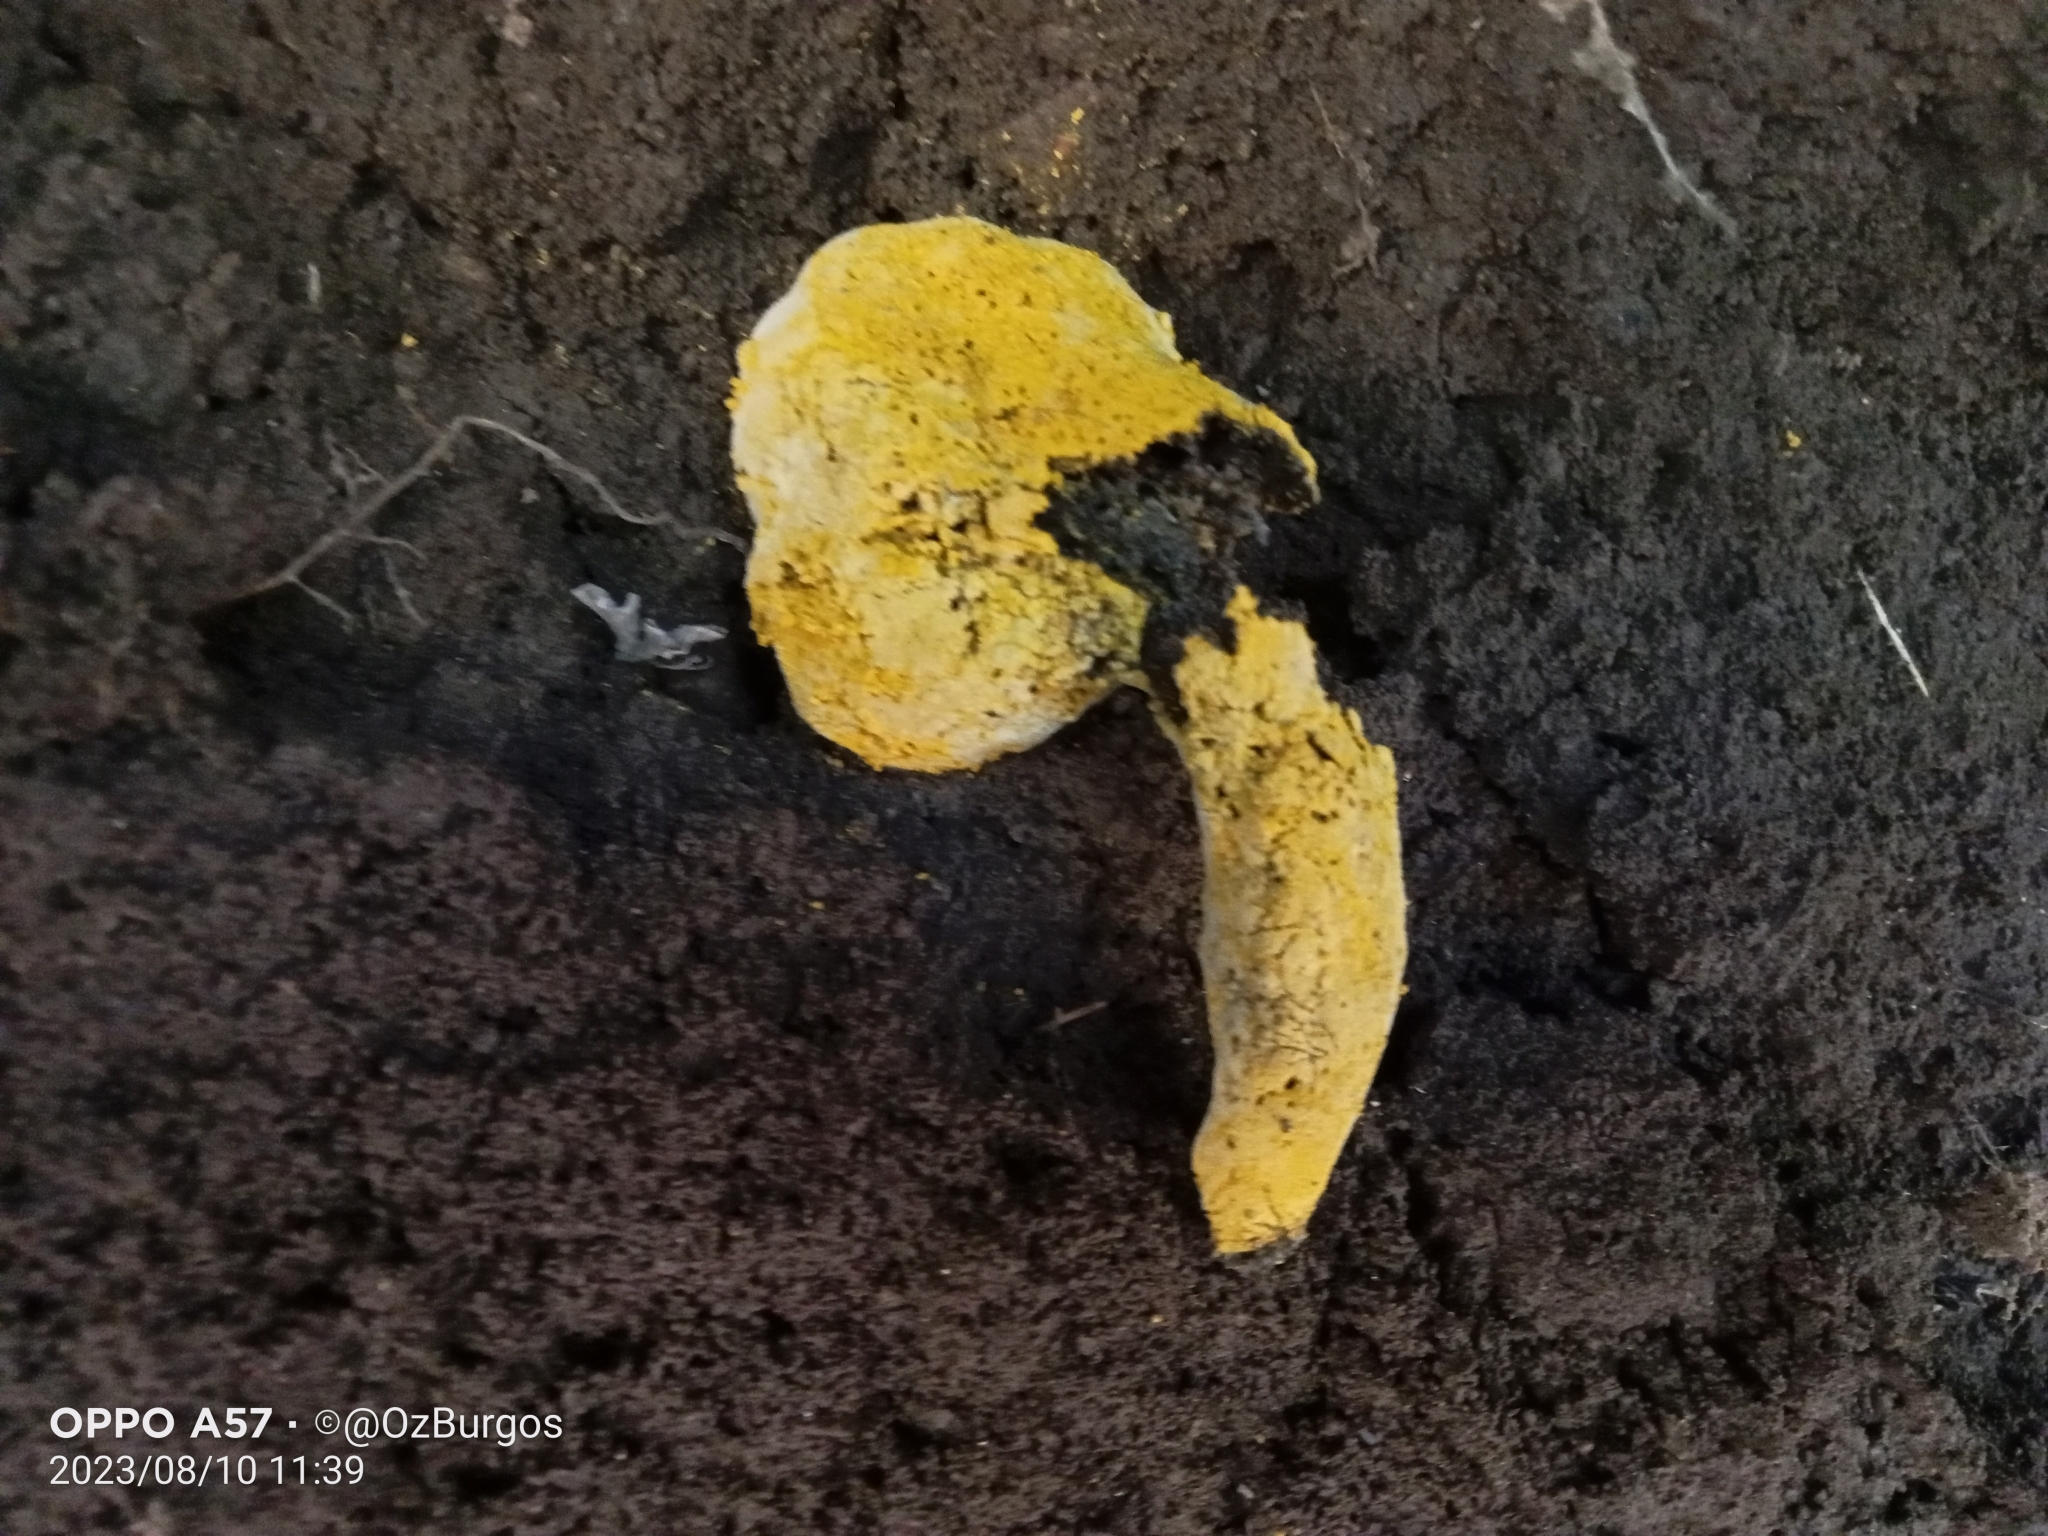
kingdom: Fungi
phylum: Ascomycota
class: Sordariomycetes
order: Hypocreales
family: Hypocreaceae
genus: Hypomyces
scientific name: Hypomyces chrysospermus
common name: Bolete mould
